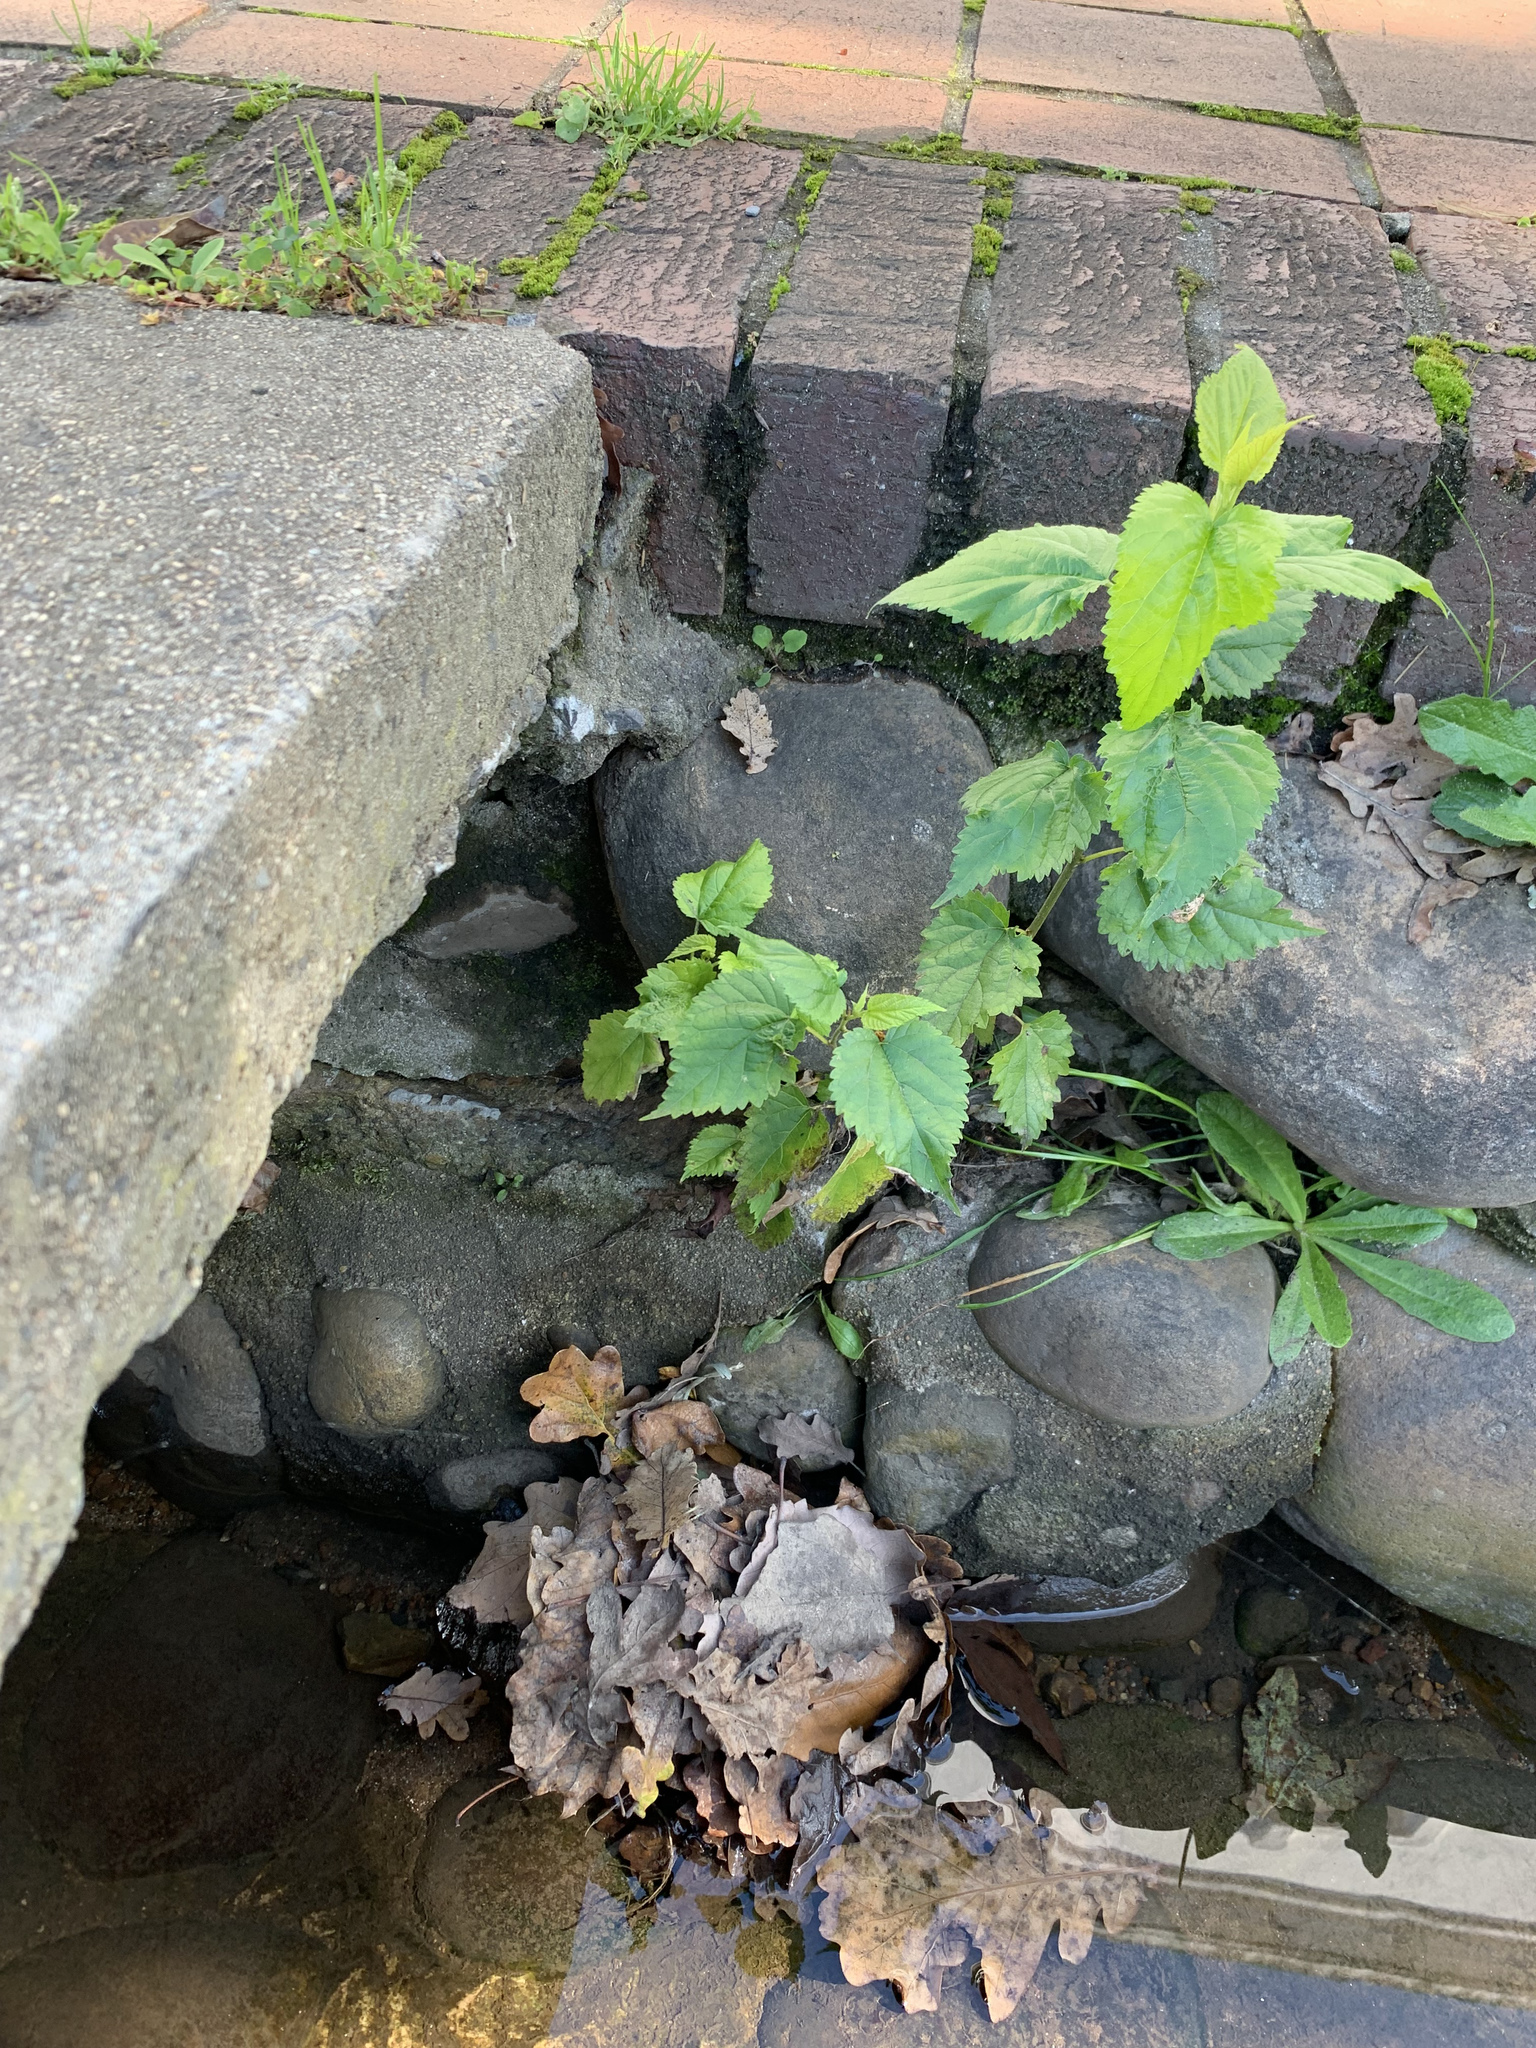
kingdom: Plantae
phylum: Tracheophyta
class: Magnoliopsida
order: Rosales
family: Moraceae
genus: Morus
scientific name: Morus alba
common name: White mulberry
